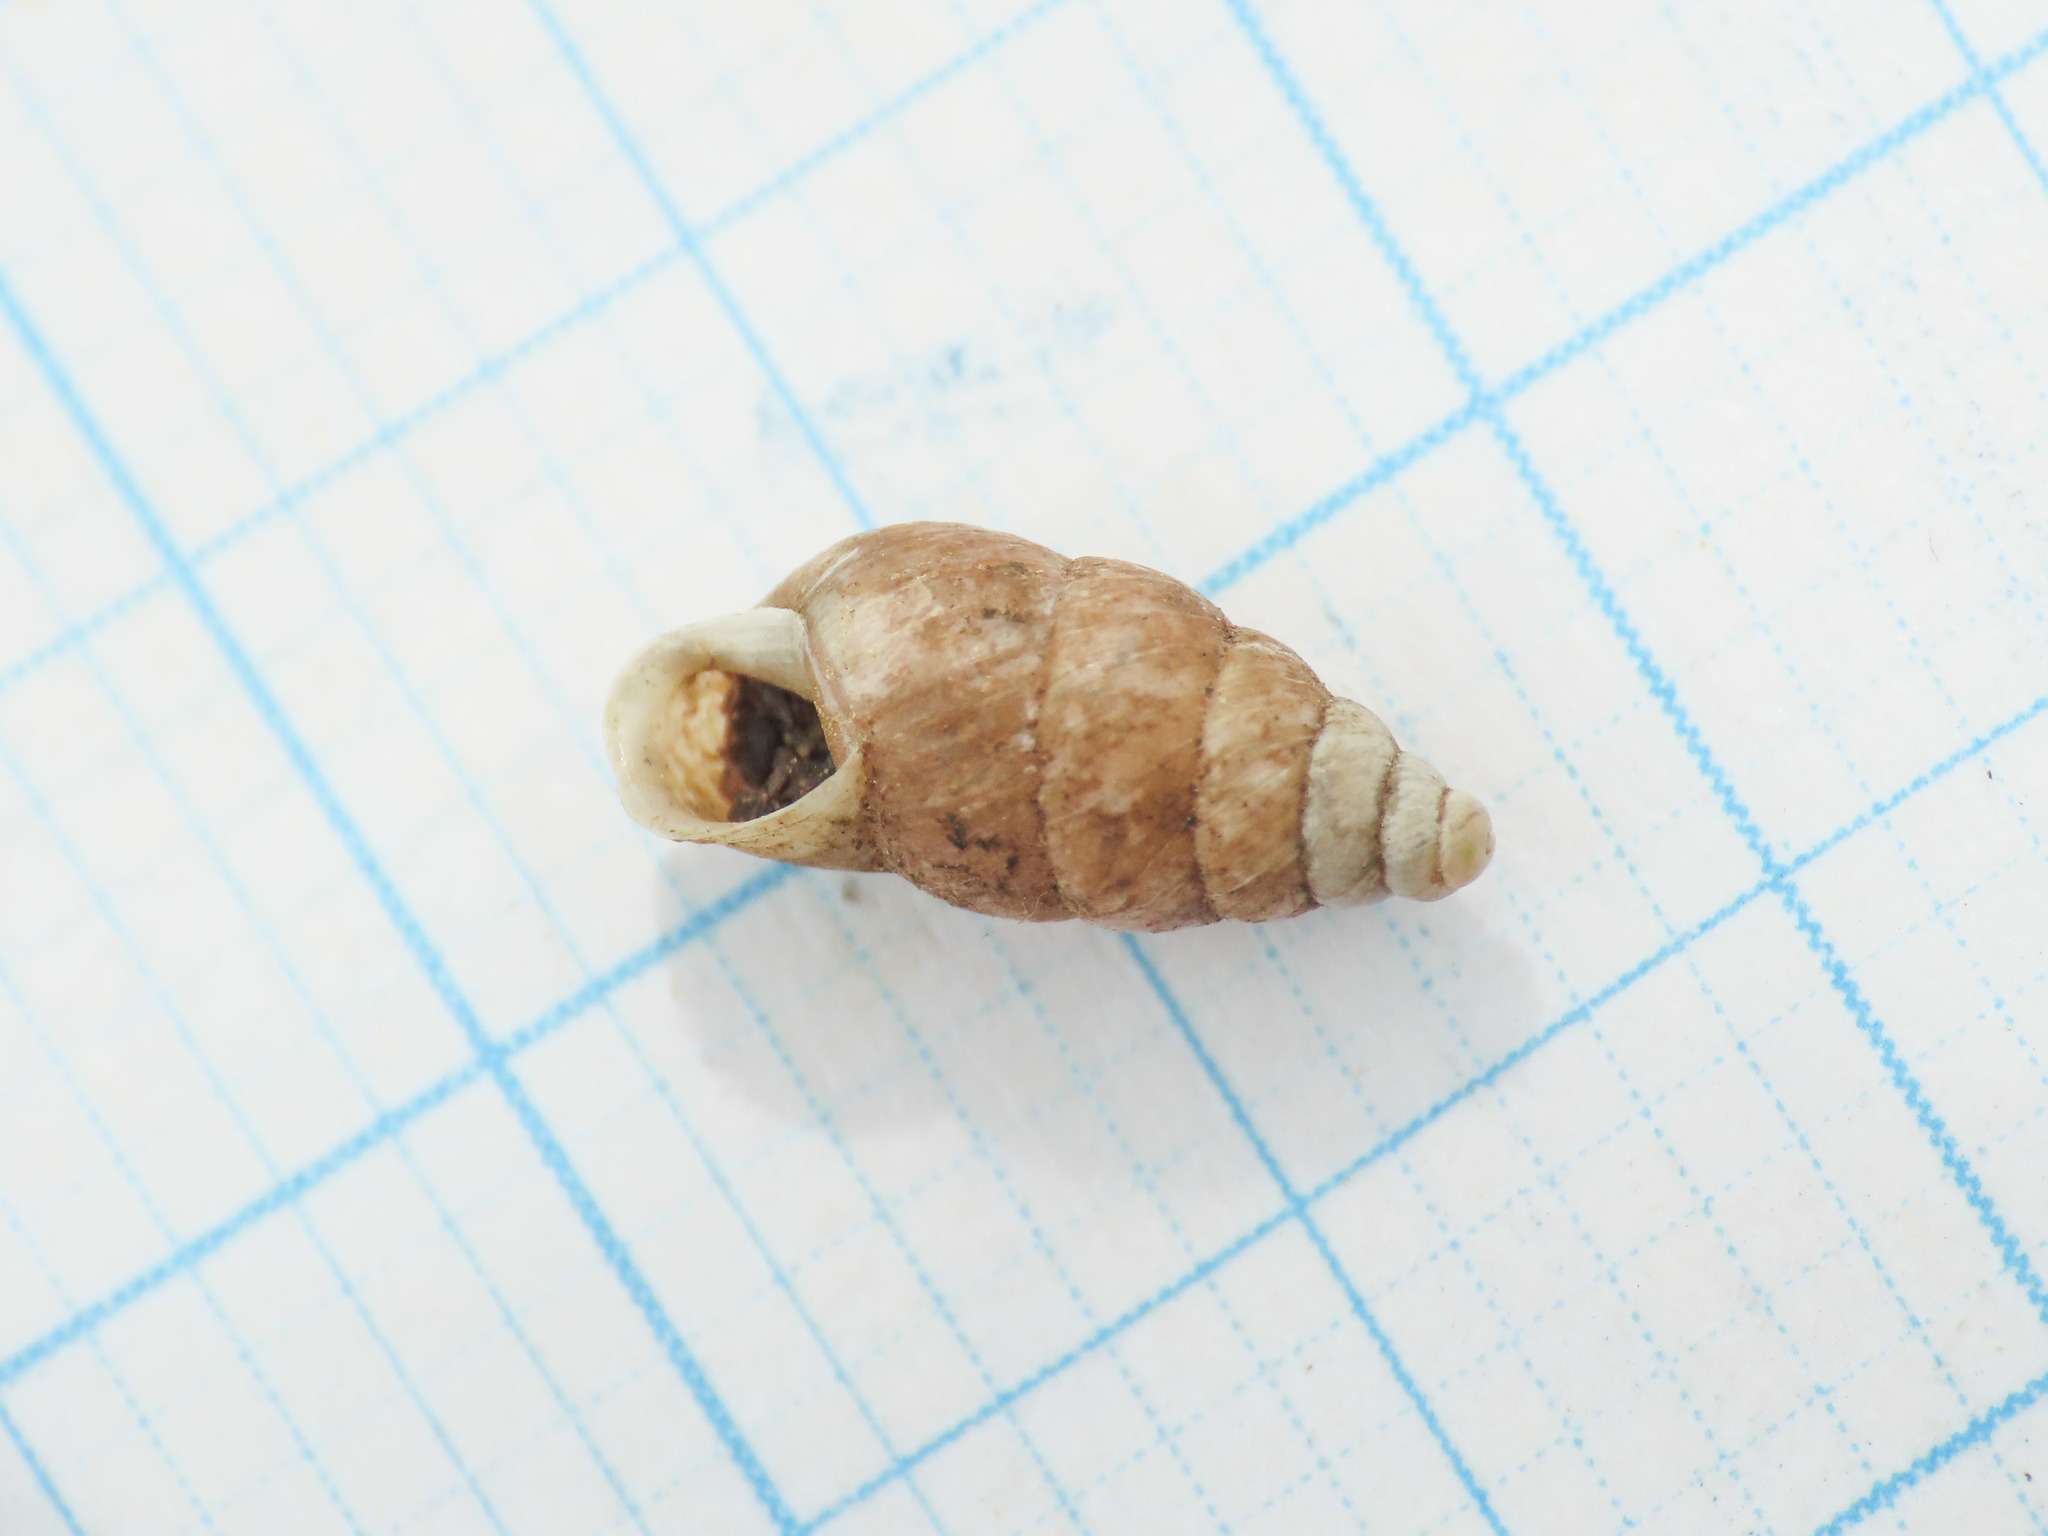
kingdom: Animalia
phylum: Mollusca
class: Gastropoda
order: Stylommatophora
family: Enidae
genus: Merdigera
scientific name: Merdigera obscura
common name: Lesser bulin
